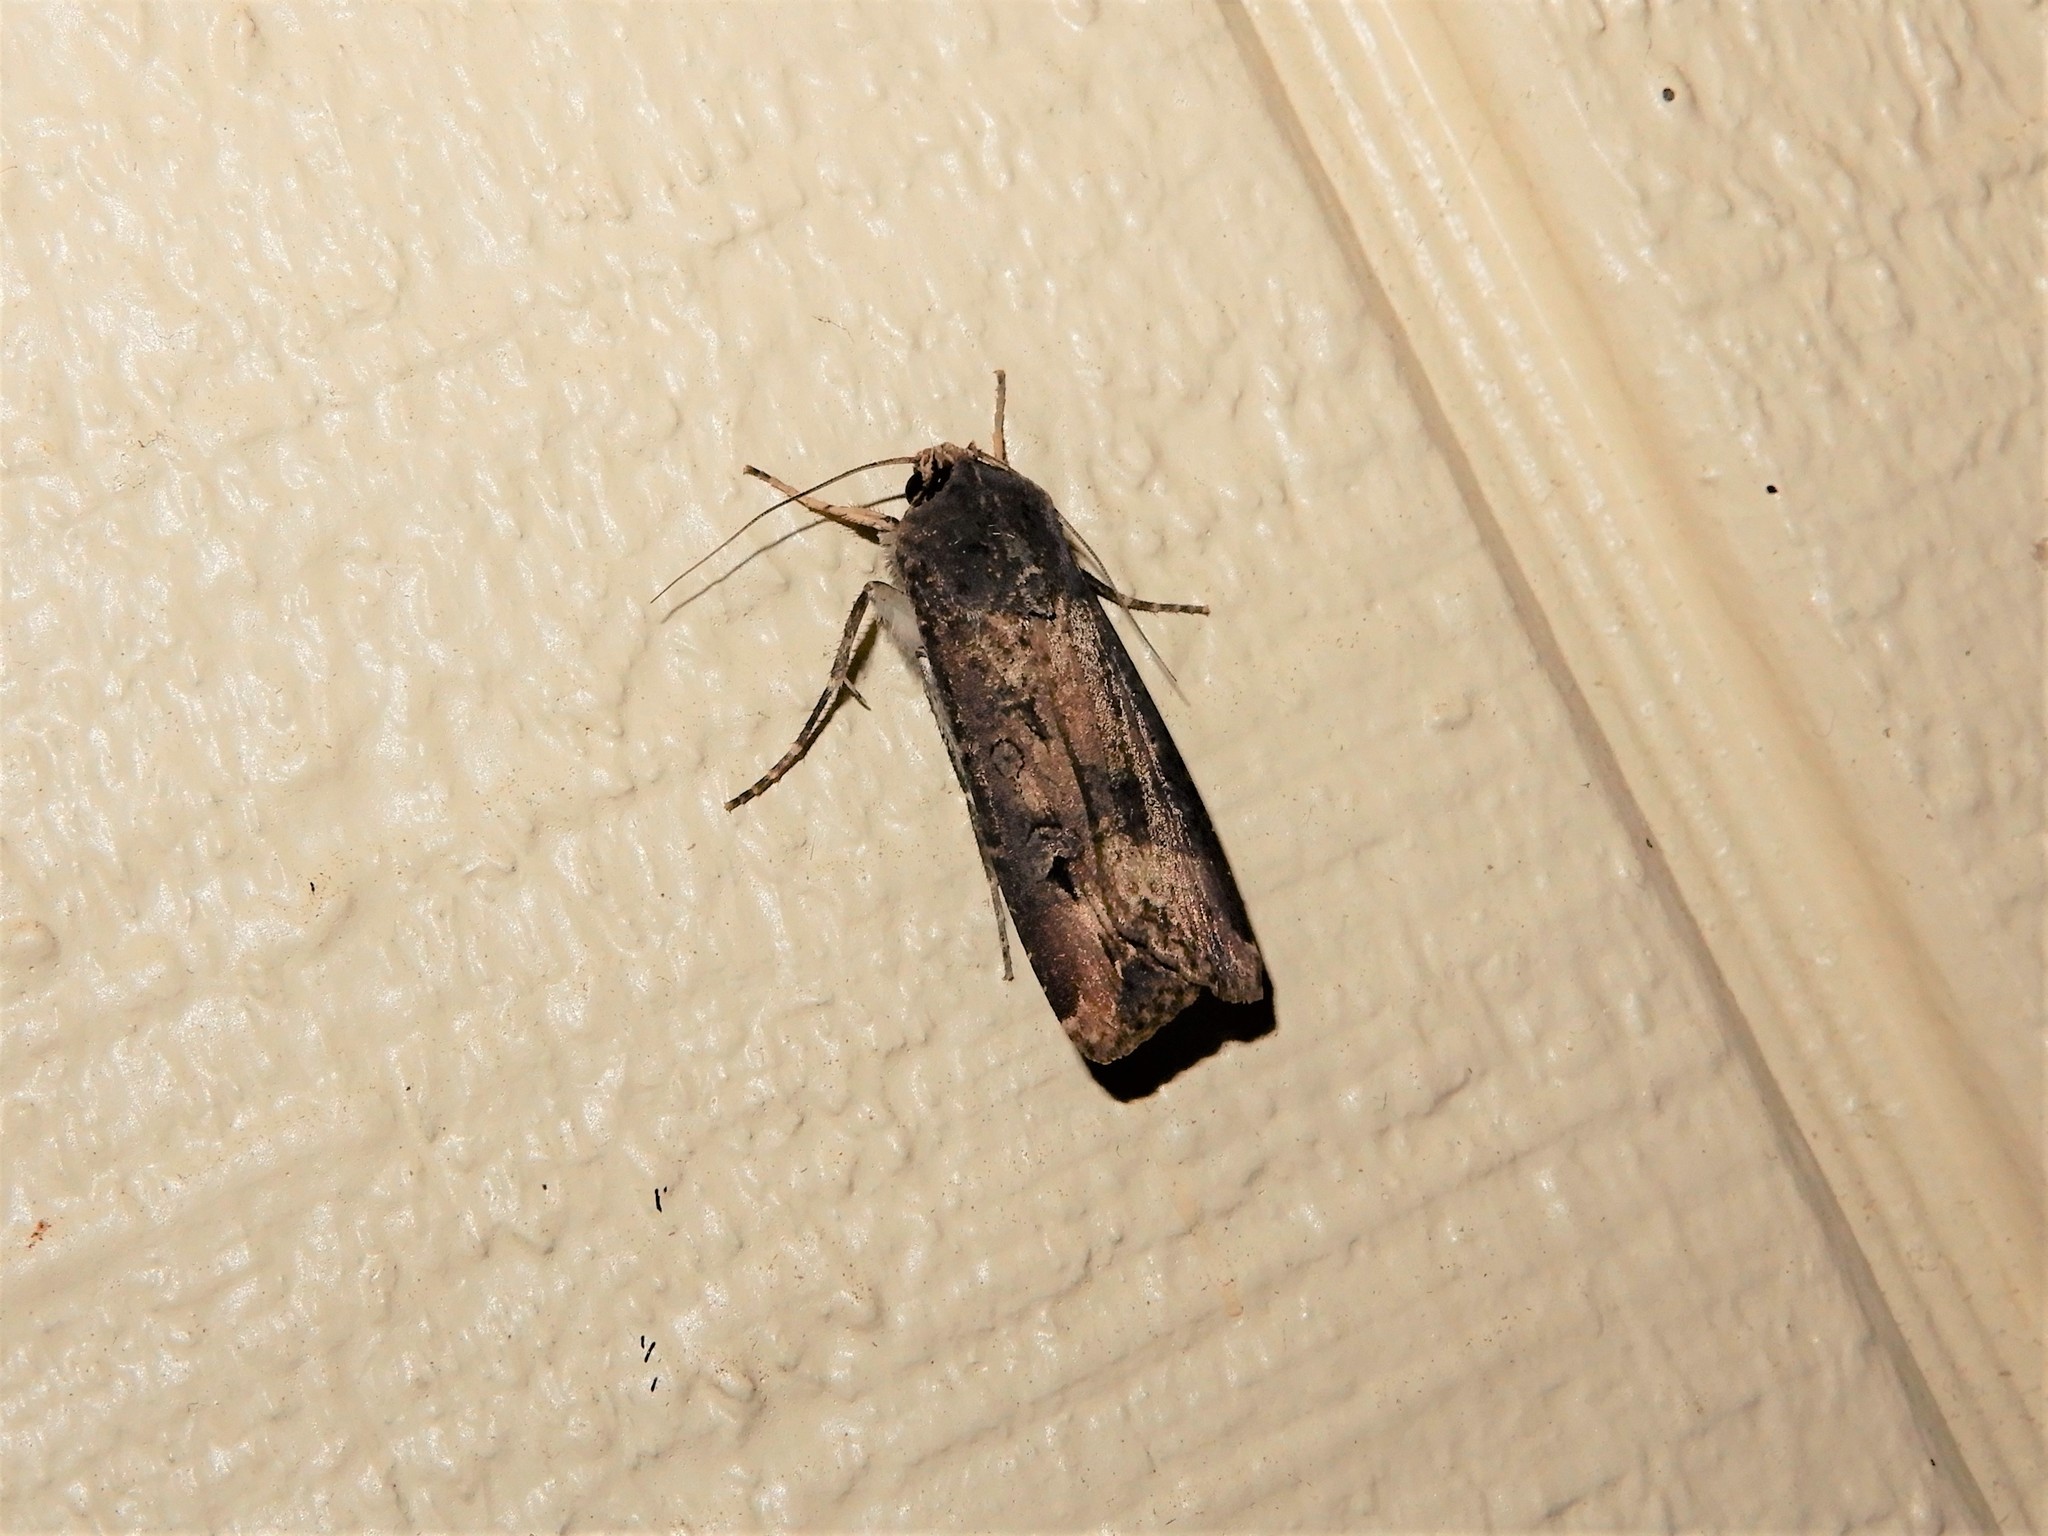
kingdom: Animalia
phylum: Arthropoda
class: Insecta
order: Lepidoptera
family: Noctuidae
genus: Agrotis
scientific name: Agrotis ipsilon
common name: Dark sword-grass
